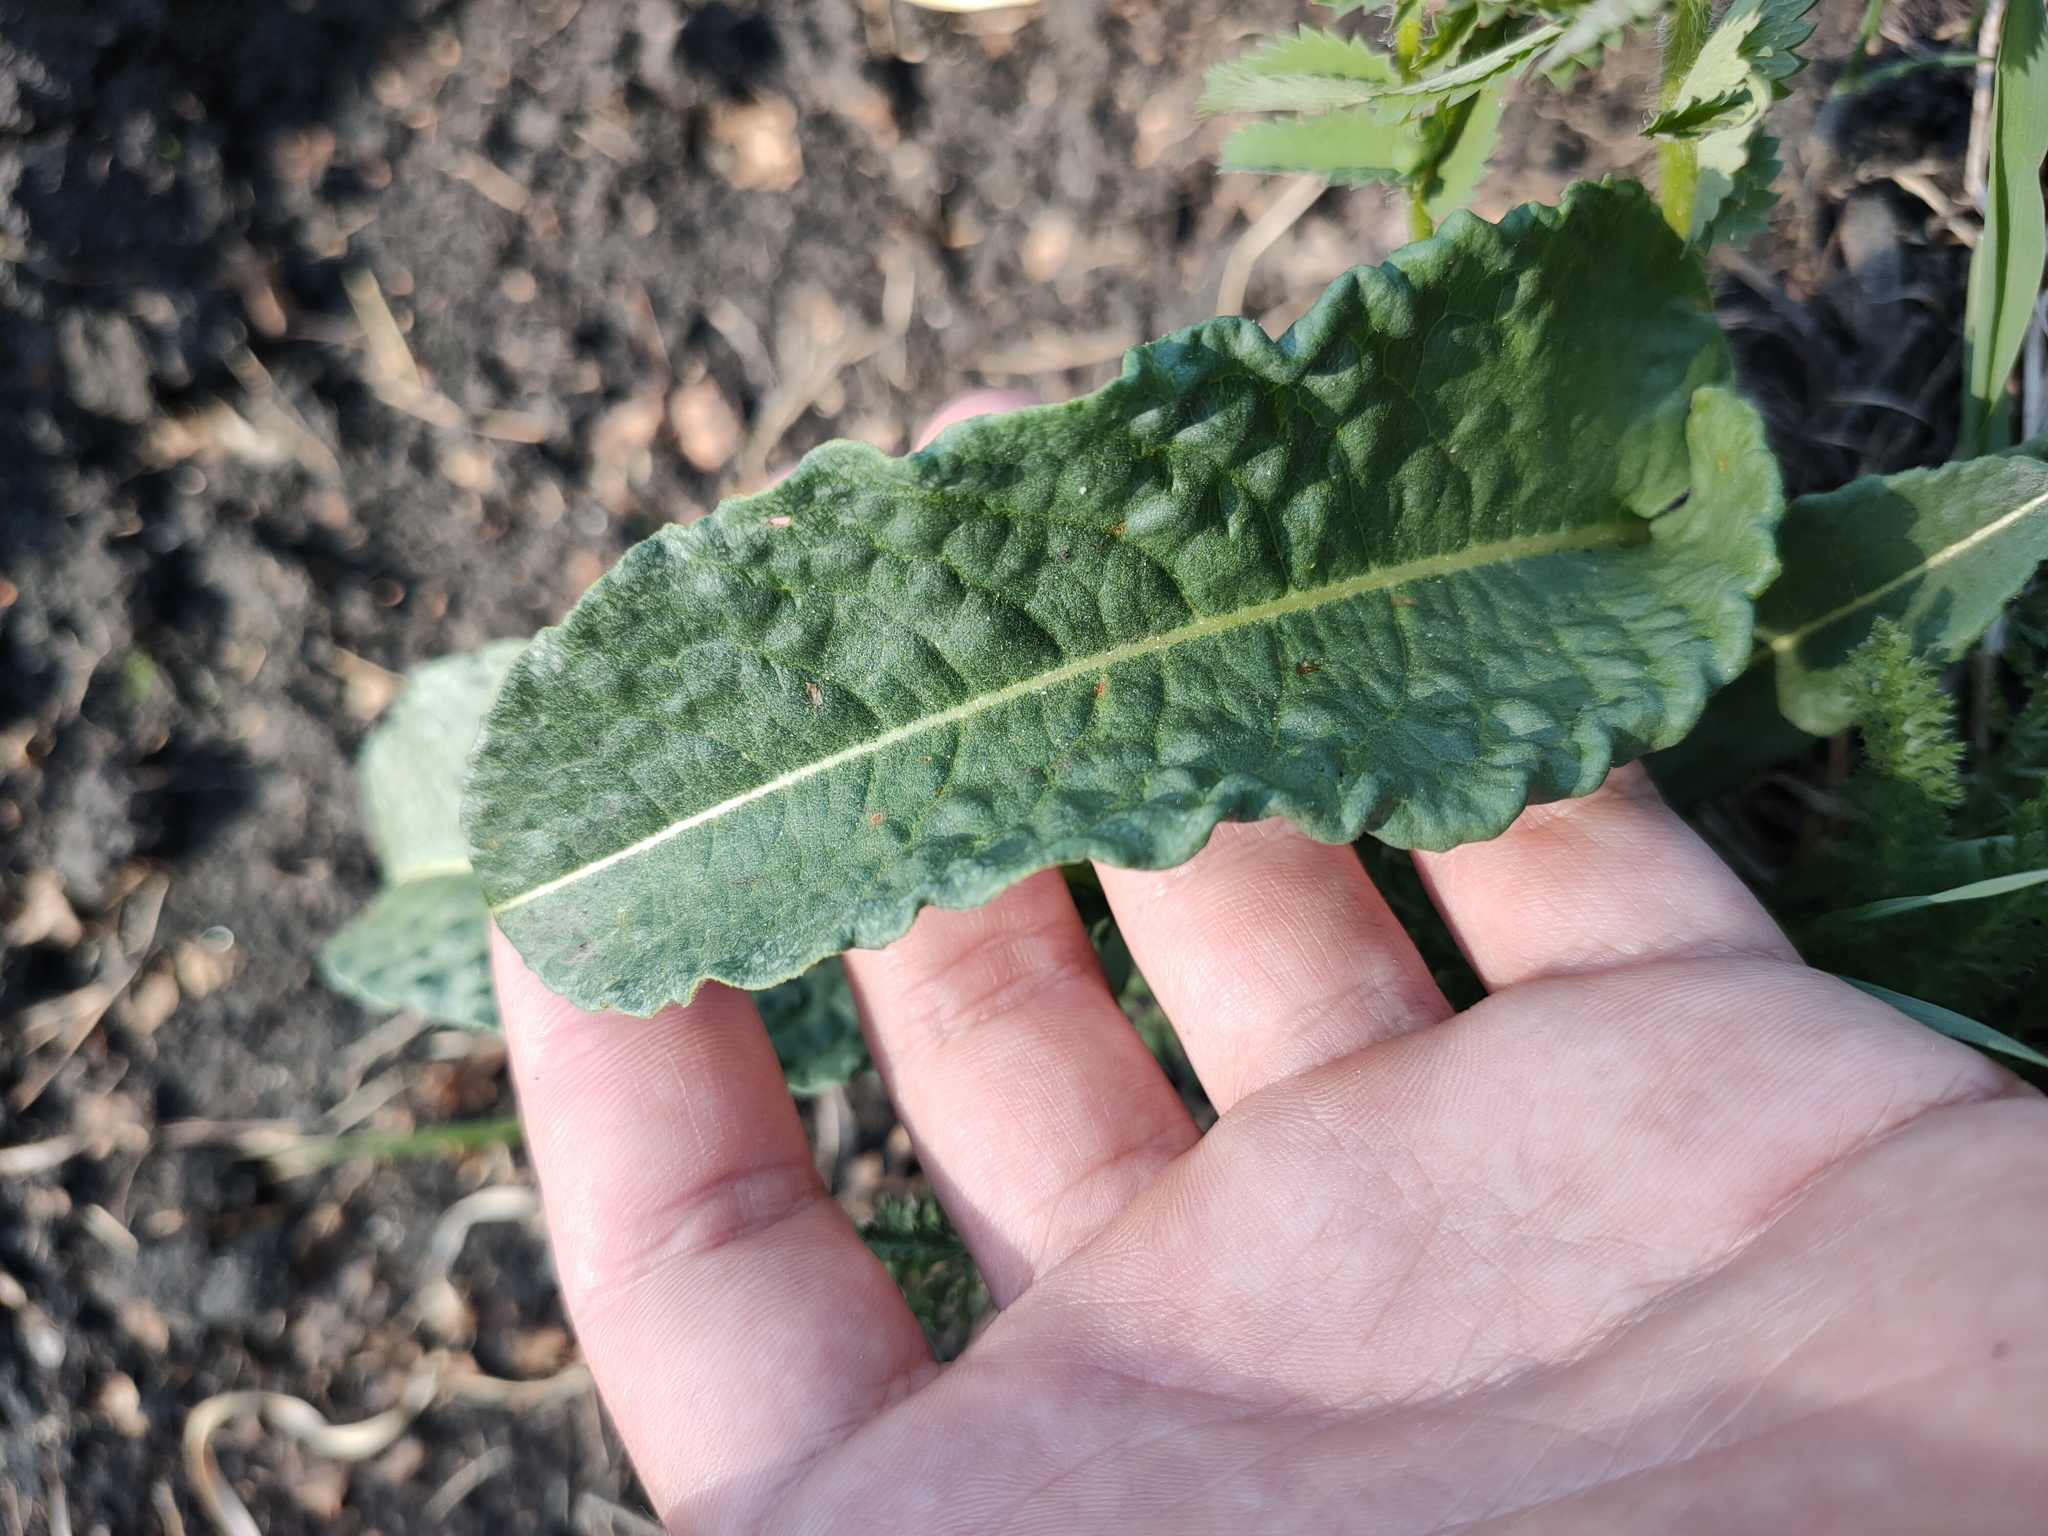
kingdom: Plantae
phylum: Tracheophyta
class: Magnoliopsida
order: Caryophyllales
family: Polygonaceae
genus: Bistorta
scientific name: Bistorta officinalis
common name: Common bistort
